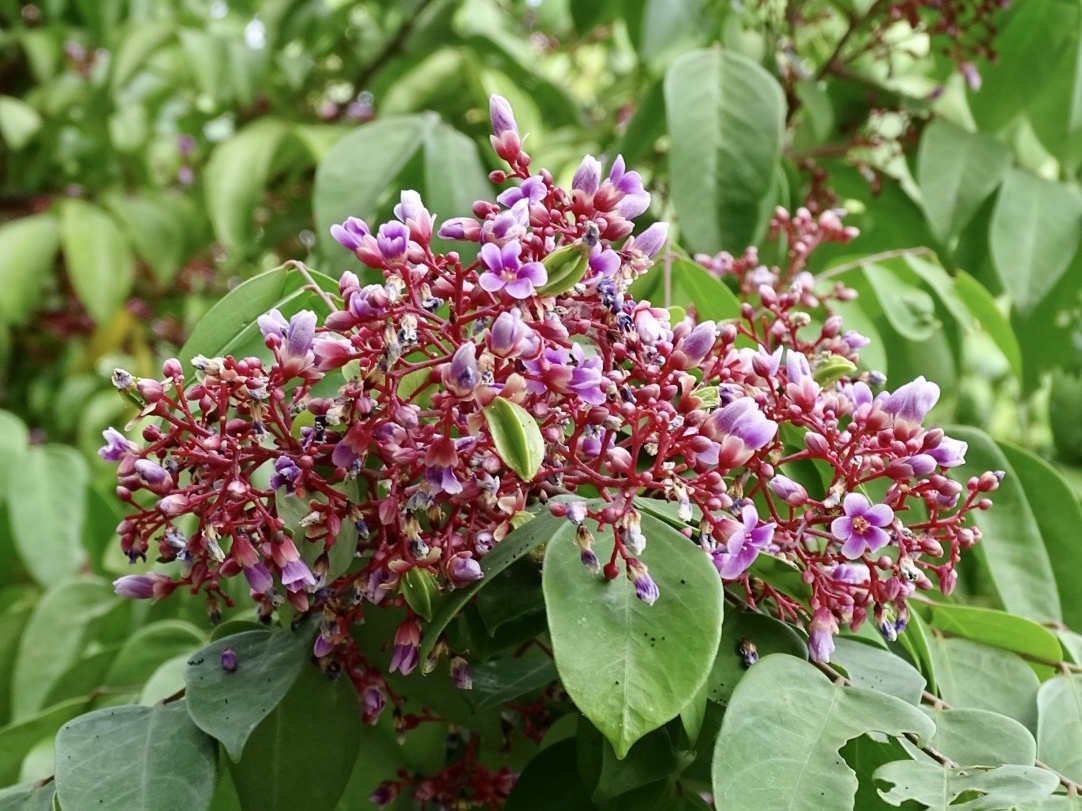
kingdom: Plantae
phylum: Tracheophyta
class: Magnoliopsida
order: Oxalidales
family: Oxalidaceae
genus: Averrhoa
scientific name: Averrhoa carambola
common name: Blimbing
